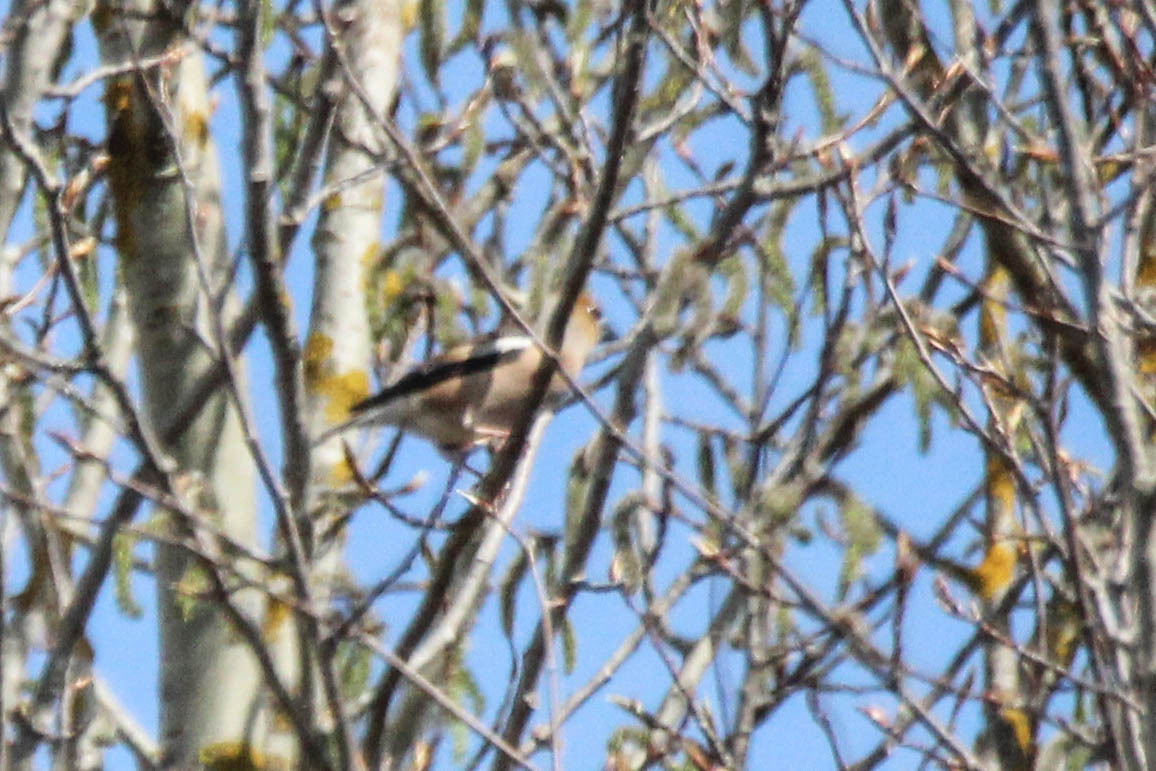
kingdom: Animalia
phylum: Chordata
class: Aves
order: Passeriformes
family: Fringillidae
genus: Coccothraustes
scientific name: Coccothraustes coccothraustes
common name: Hawfinch
